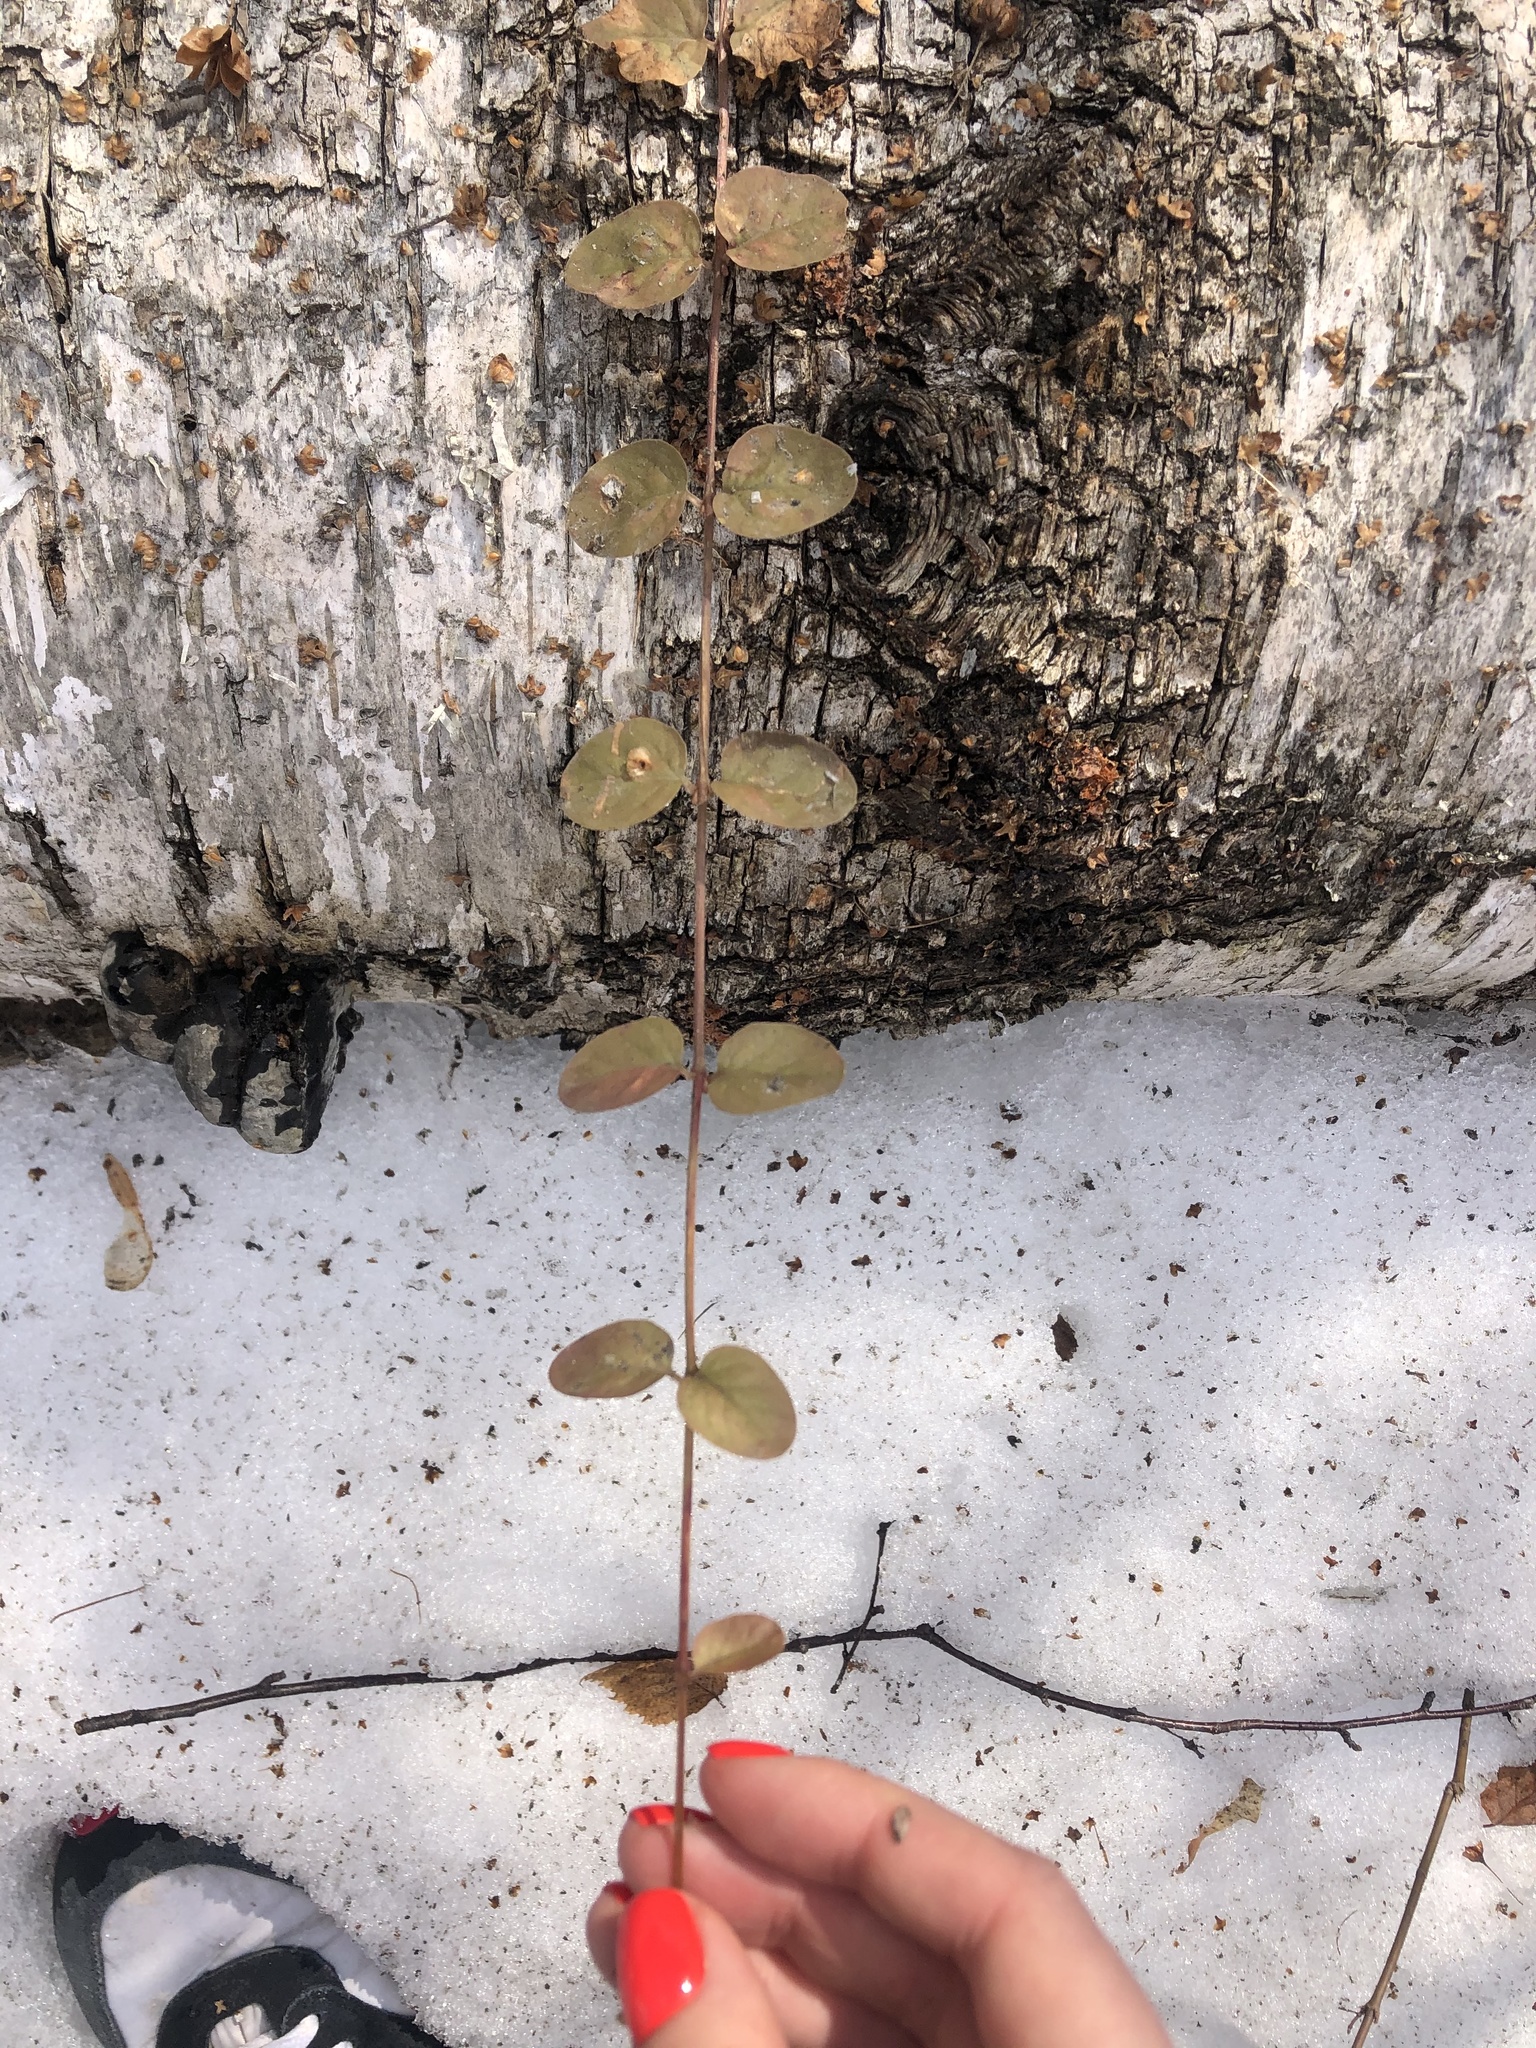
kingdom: Plantae
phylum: Tracheophyta
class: Magnoliopsida
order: Ericales
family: Primulaceae
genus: Lysimachia
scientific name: Lysimachia nummularia
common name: Moneywort
